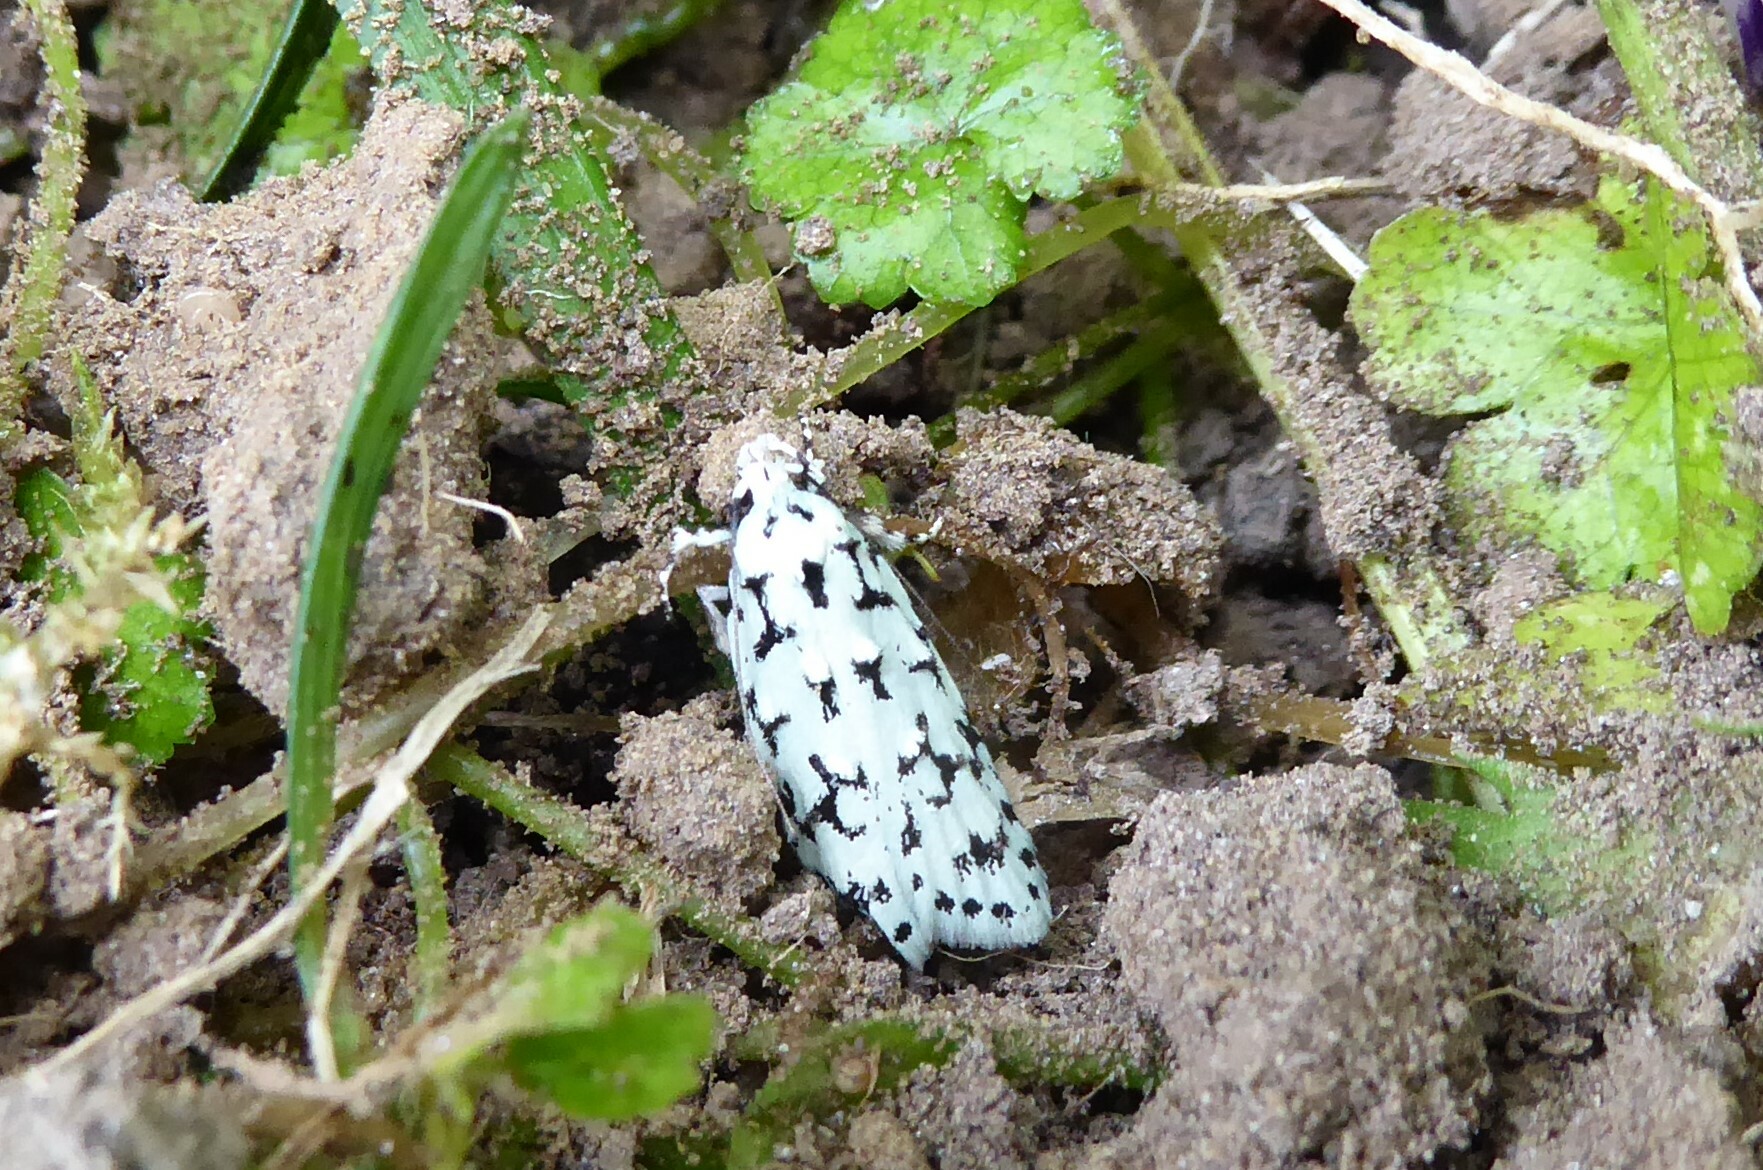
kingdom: Animalia
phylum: Arthropoda
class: Insecta
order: Lepidoptera
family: Oecophoridae
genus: Izatha
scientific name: Izatha huttoni
